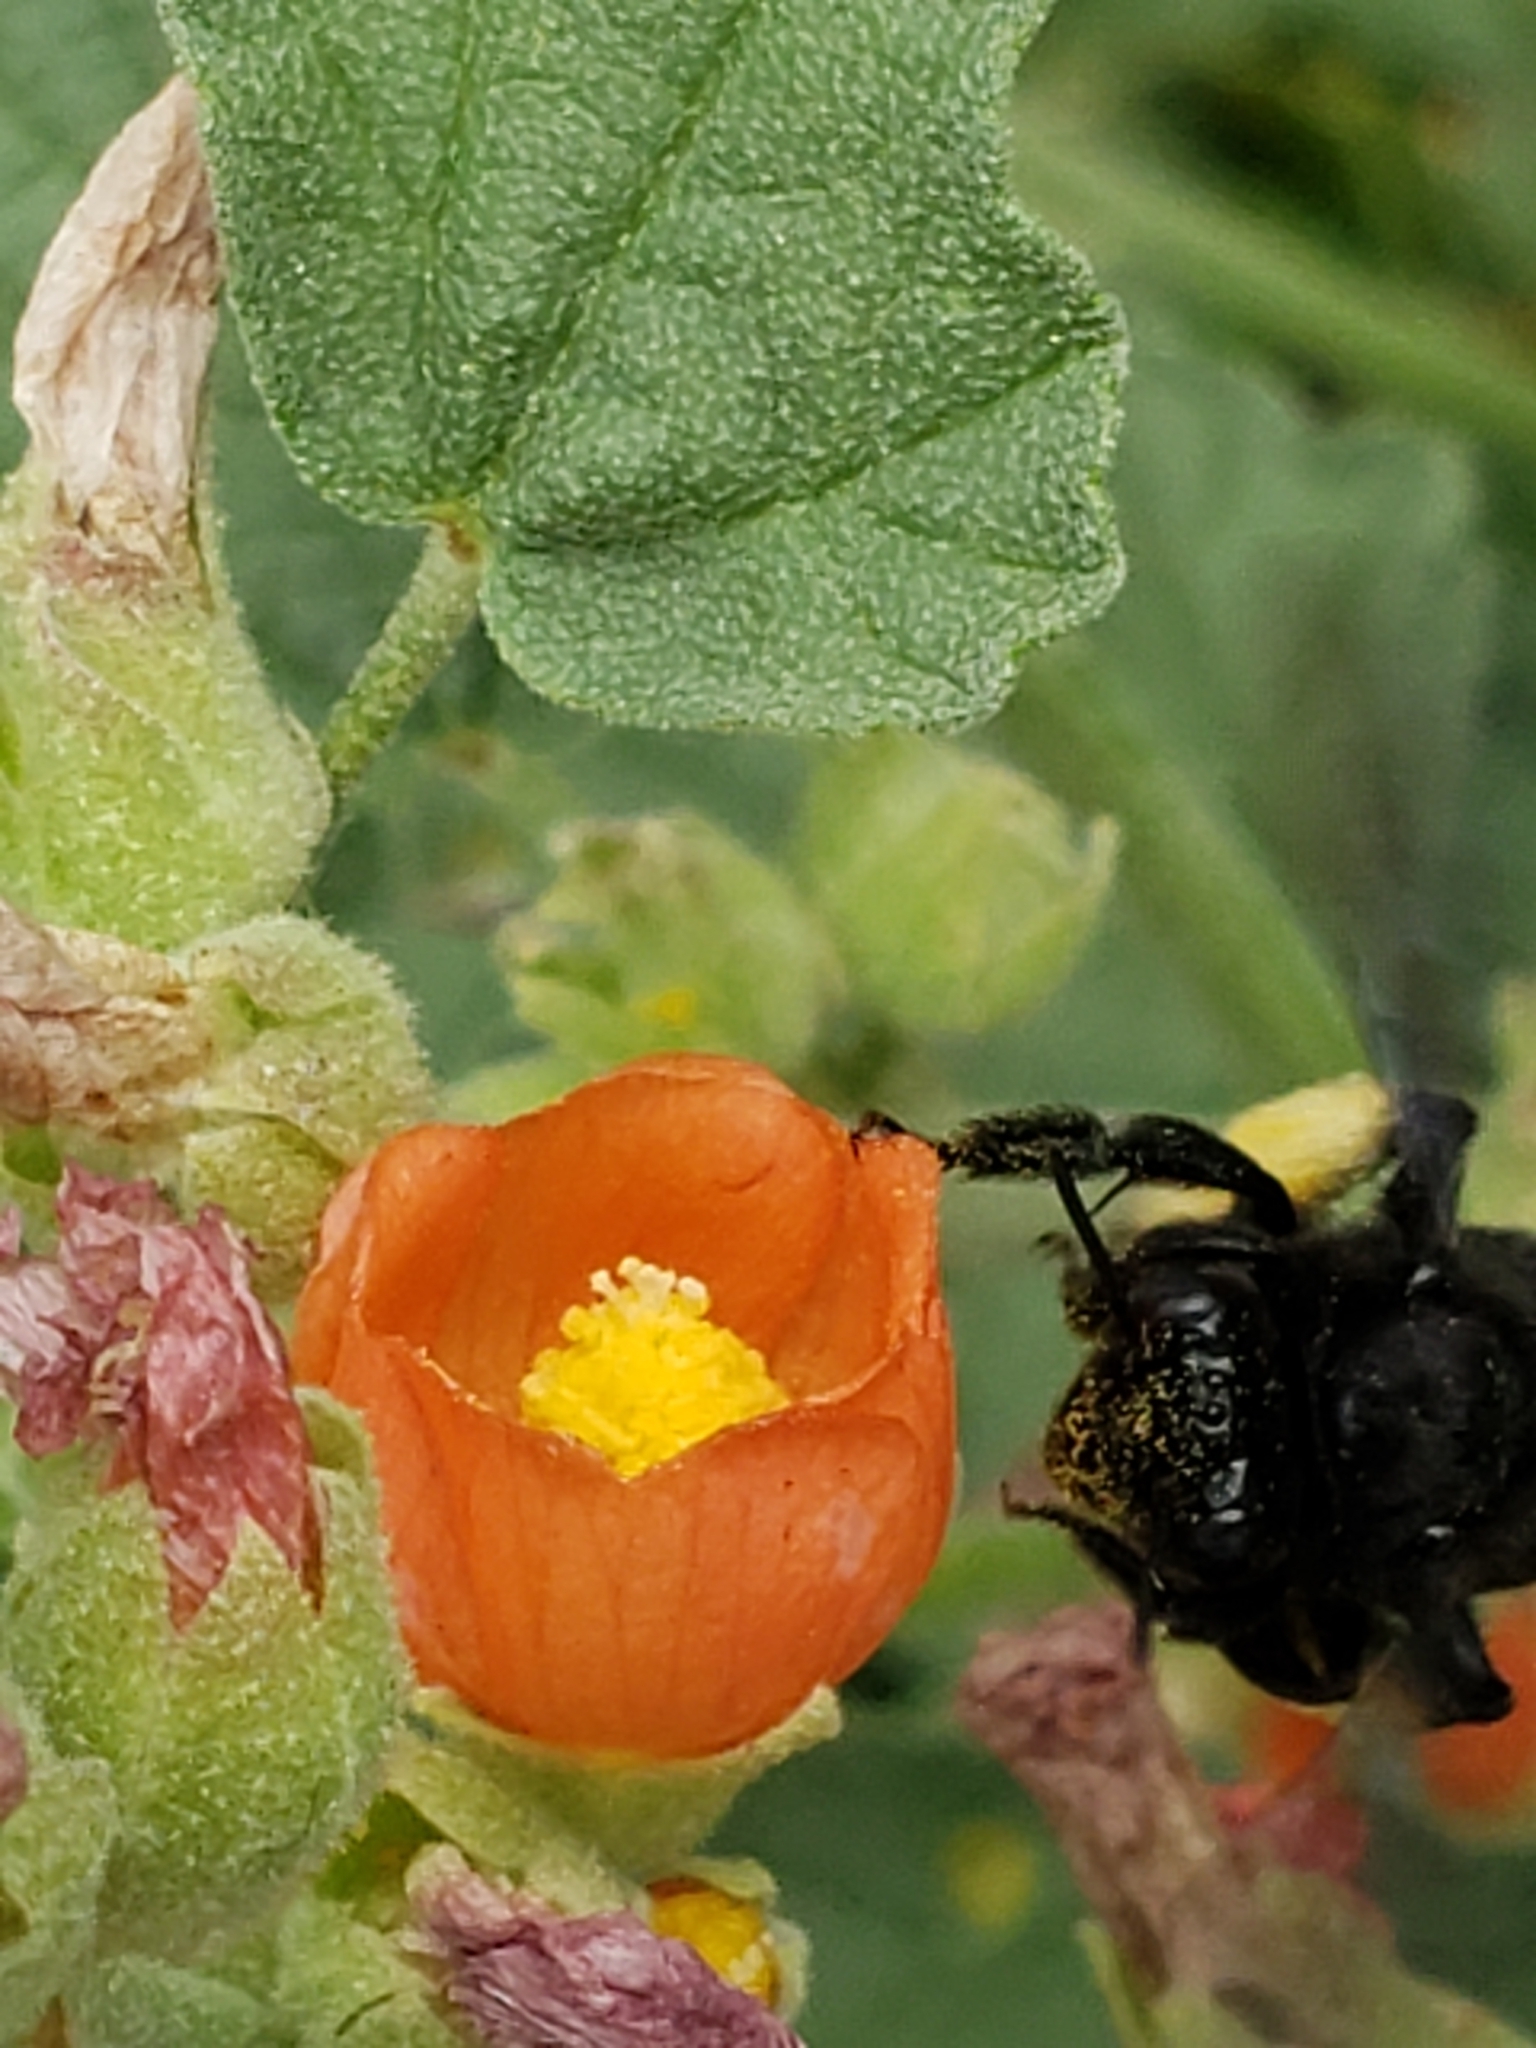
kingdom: Plantae
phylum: Tracheophyta
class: Magnoliopsida
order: Malvales
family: Malvaceae
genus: Sphaeralcea
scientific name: Sphaeralcea coccinea
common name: Moss-rose
